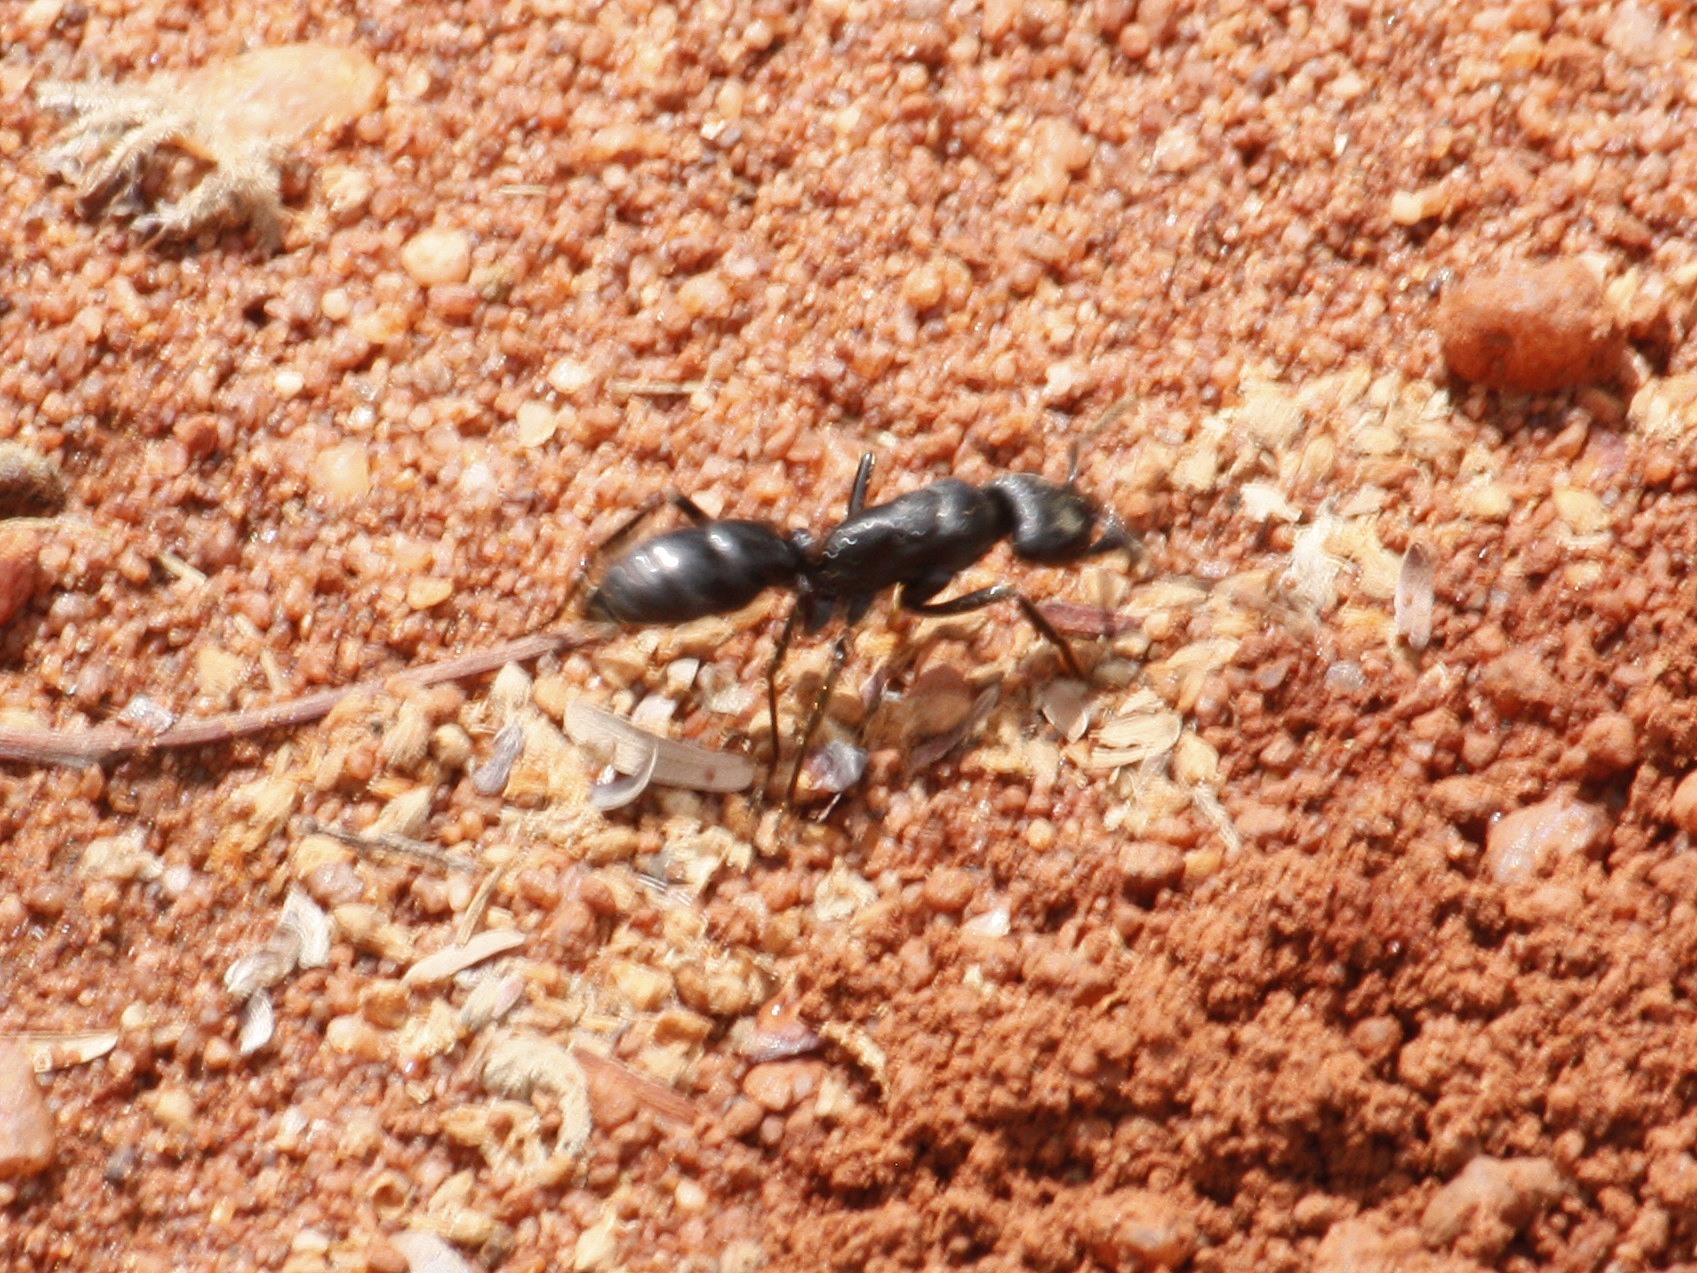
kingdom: Animalia
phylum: Arthropoda
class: Insecta
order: Hymenoptera
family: Formicidae
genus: Paltothyreus
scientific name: Paltothyreus tarsatus
